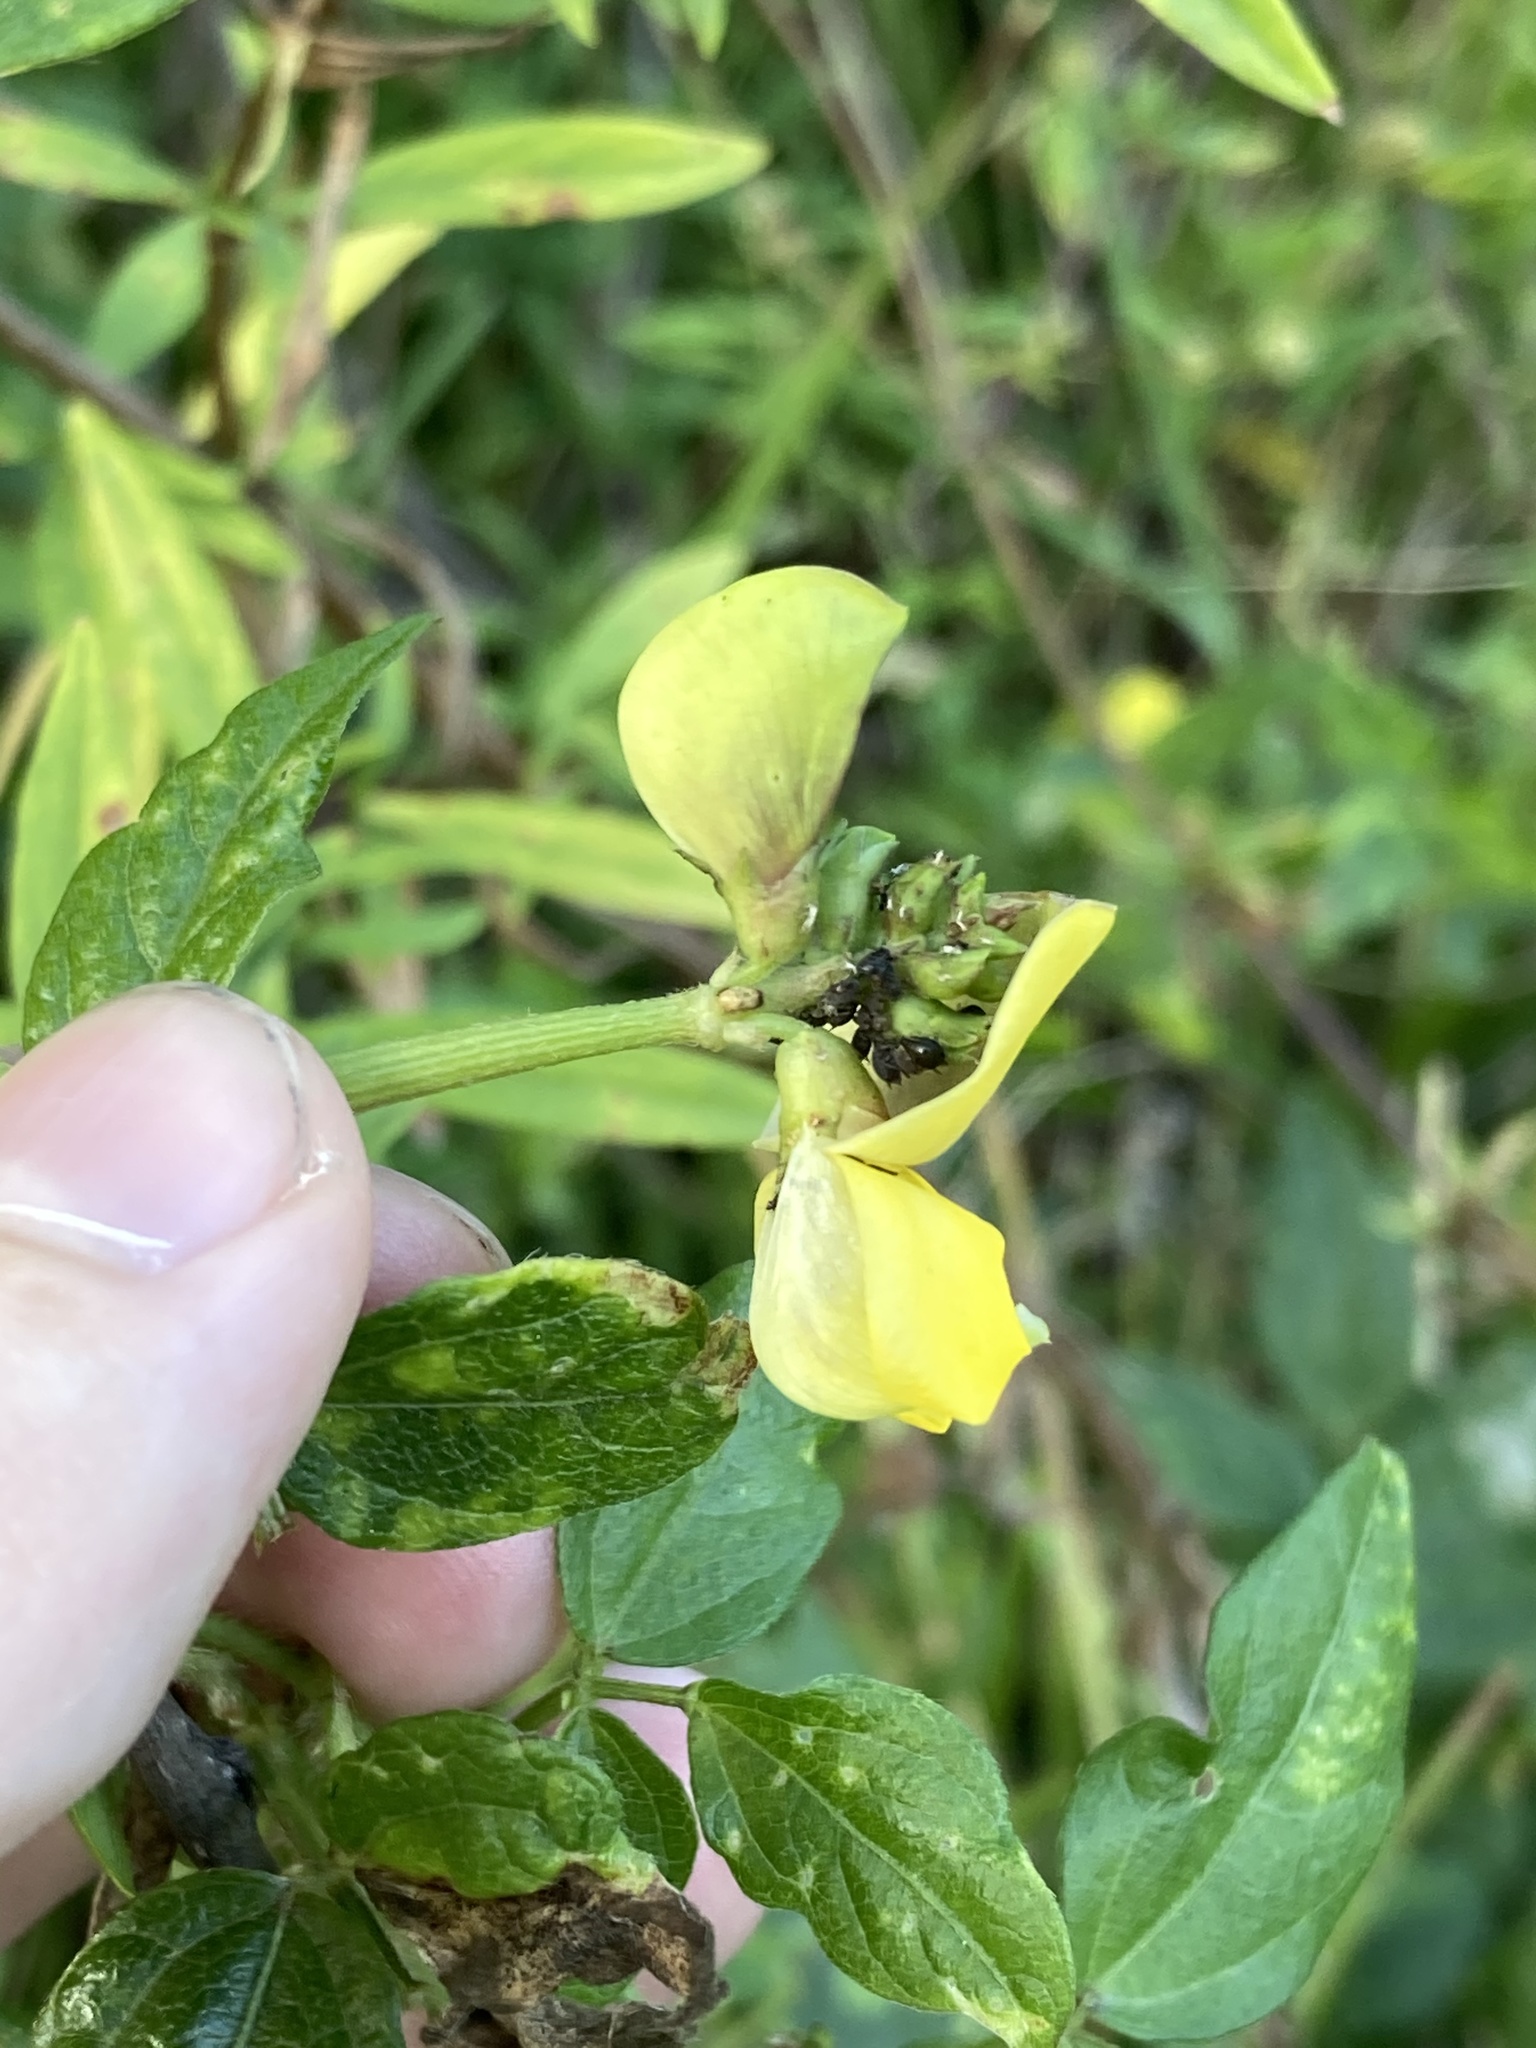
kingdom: Plantae
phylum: Tracheophyta
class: Magnoliopsida
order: Fabales
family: Fabaceae
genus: Vigna
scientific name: Vigna luteola
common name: Hairypod cowpea
